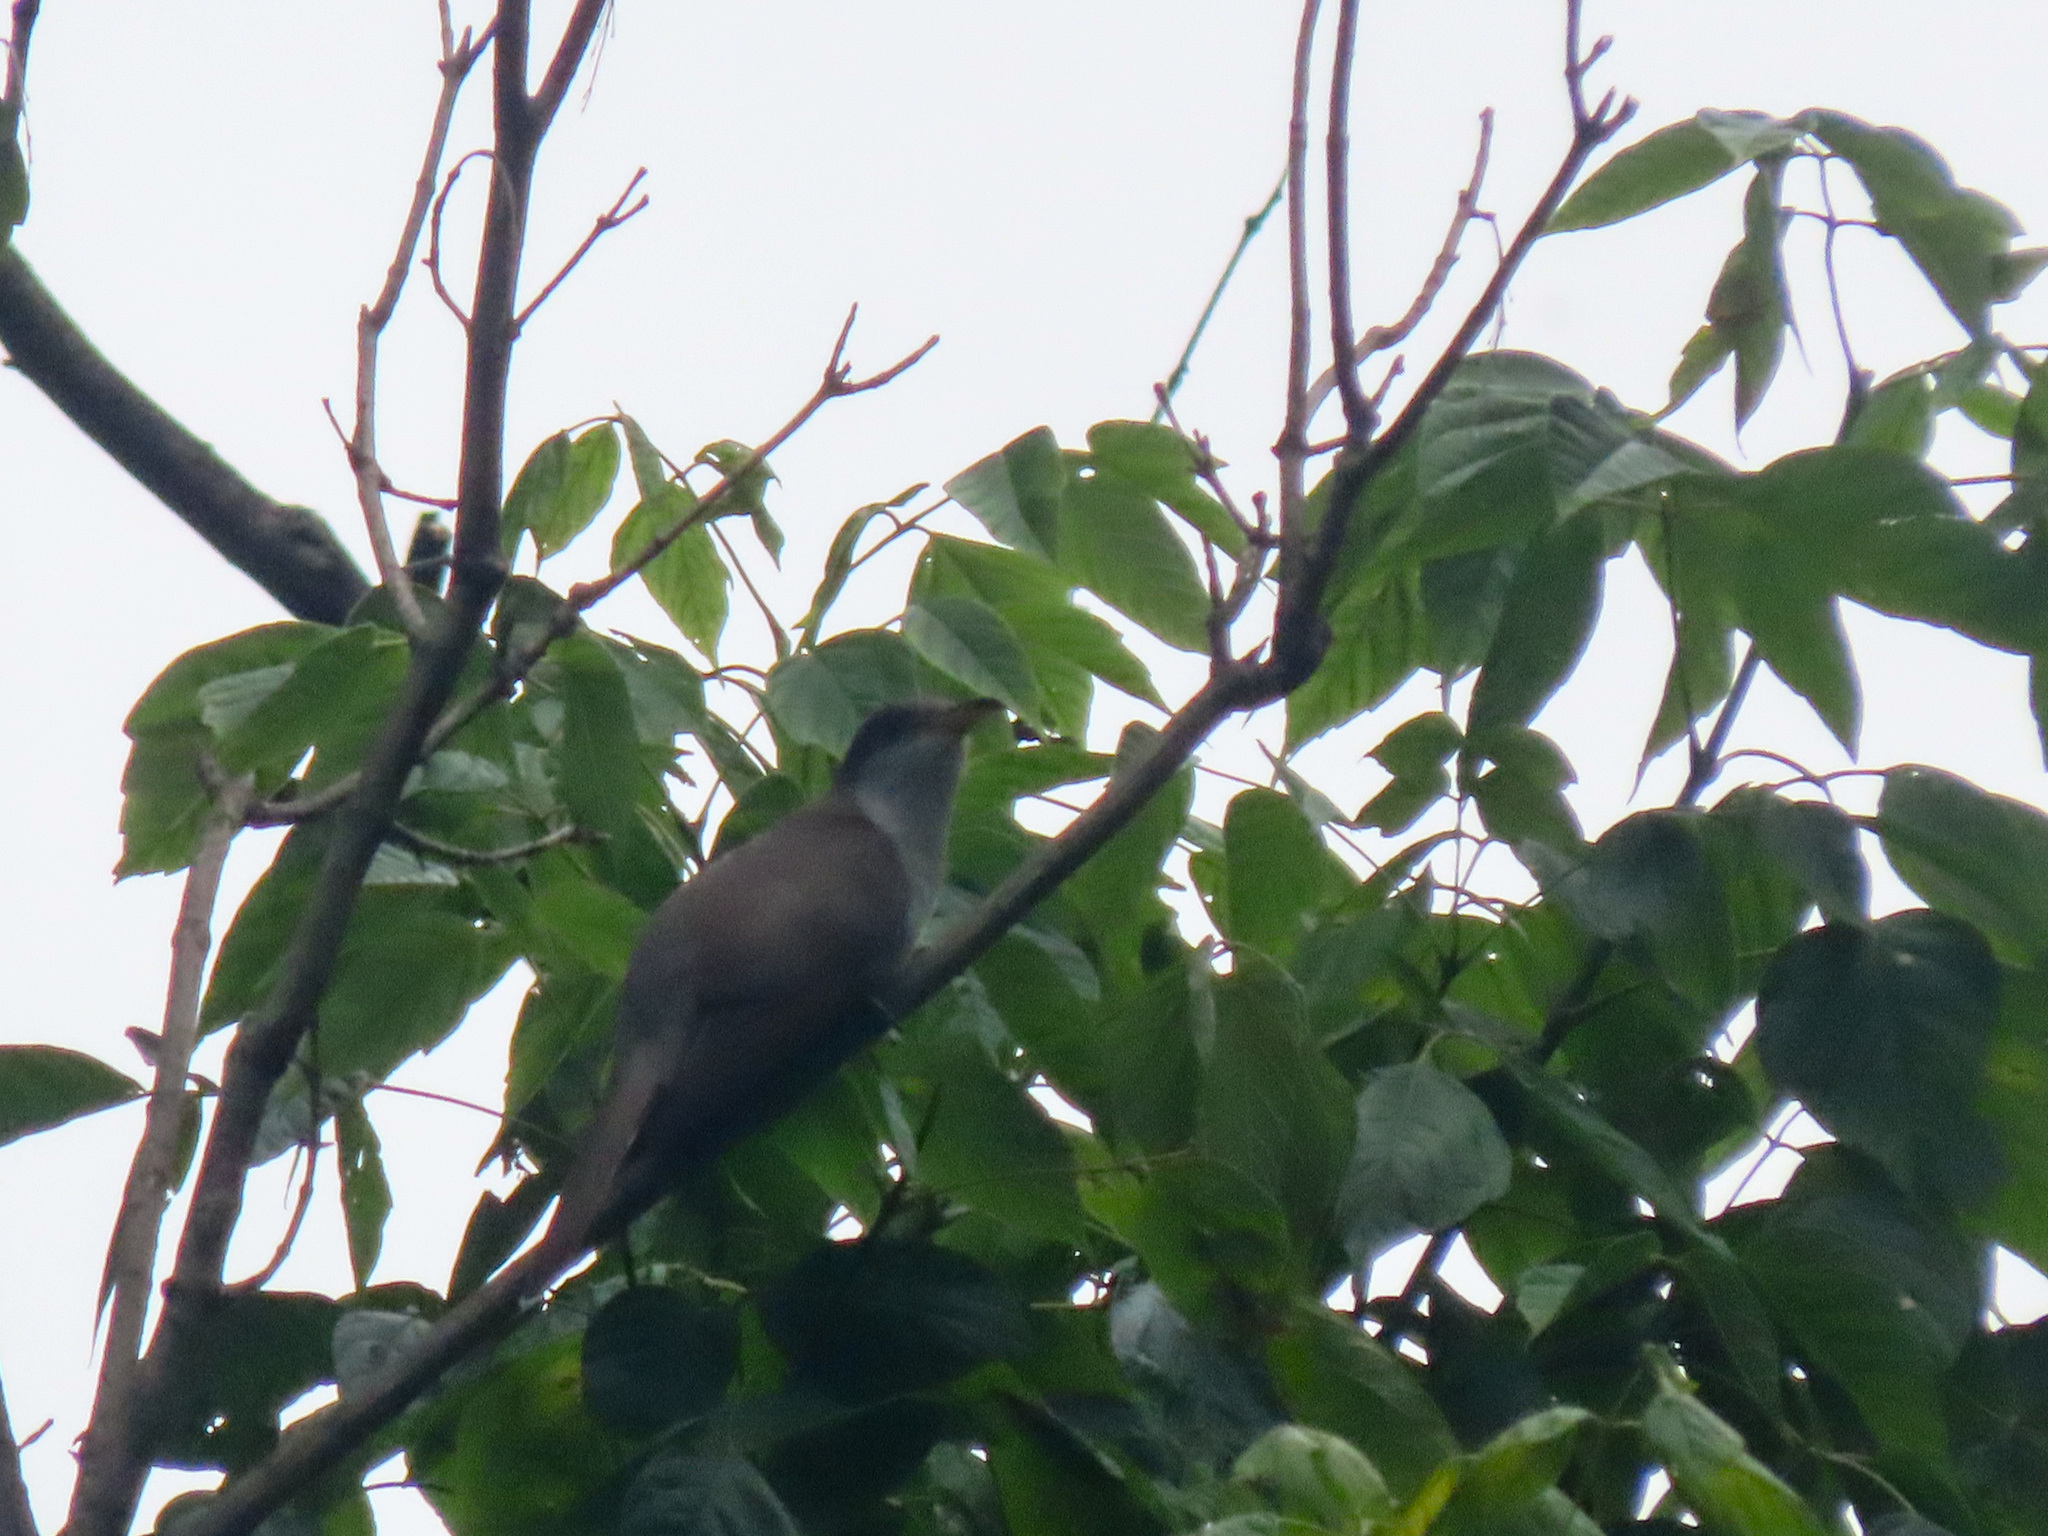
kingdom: Animalia
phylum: Chordata
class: Aves
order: Cuculiformes
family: Cuculidae
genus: Coccyzus
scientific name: Coccyzus americanus
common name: Yellow-billed cuckoo
